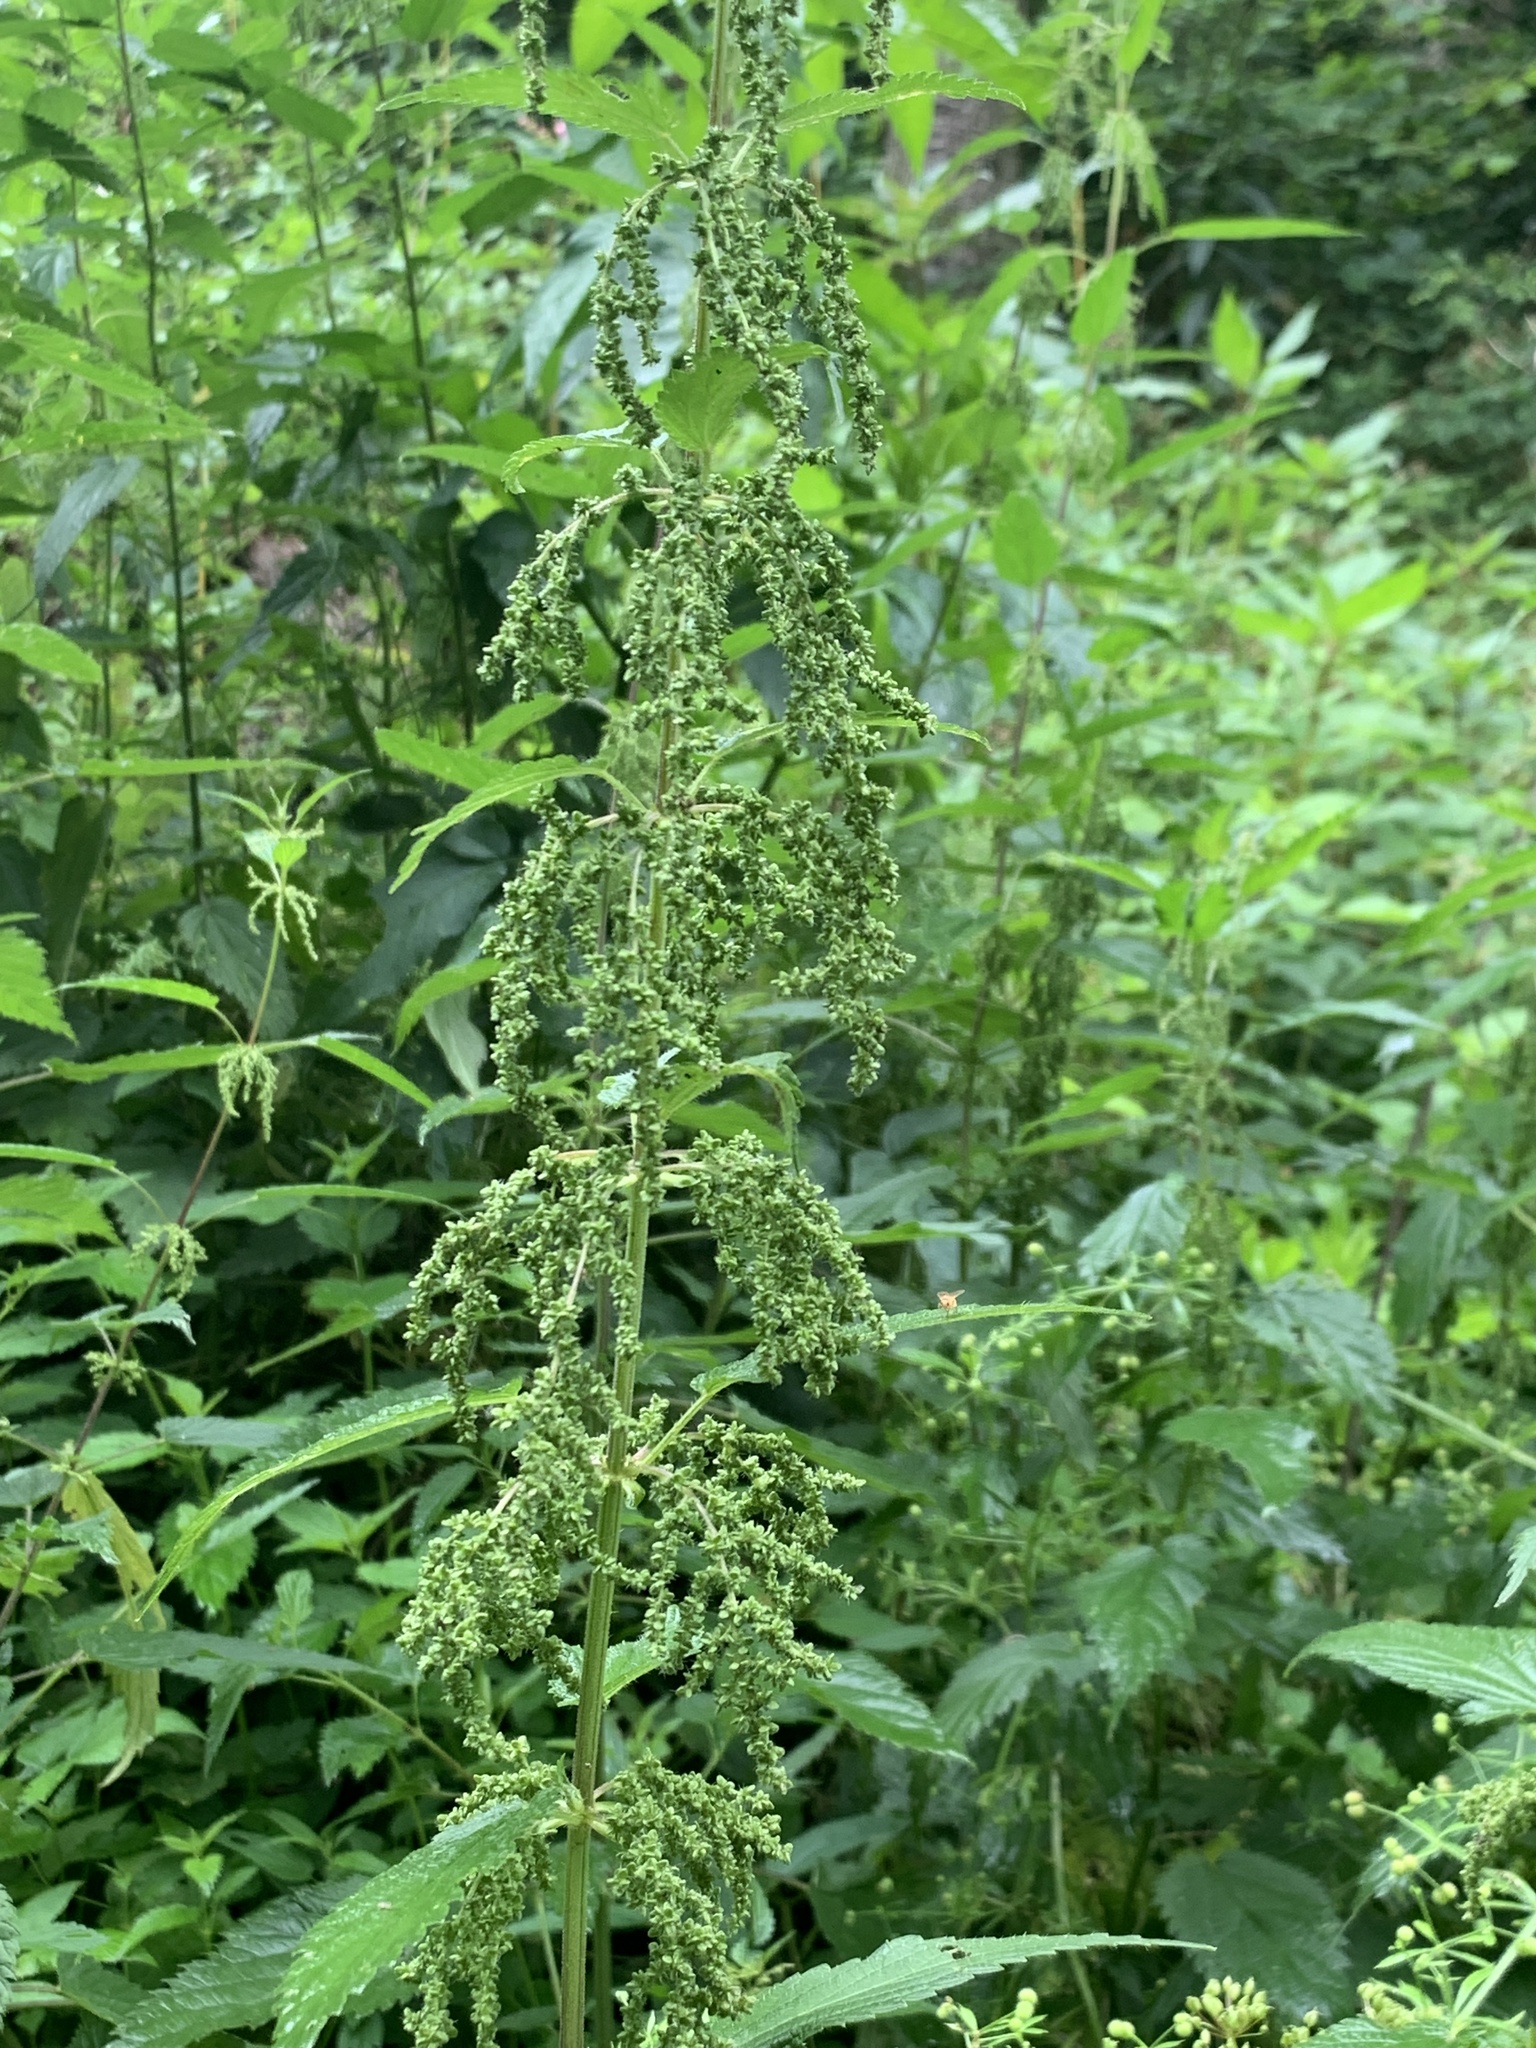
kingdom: Plantae
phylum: Tracheophyta
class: Magnoliopsida
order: Rosales
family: Urticaceae
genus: Urtica
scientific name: Urtica dioica
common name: Common nettle
